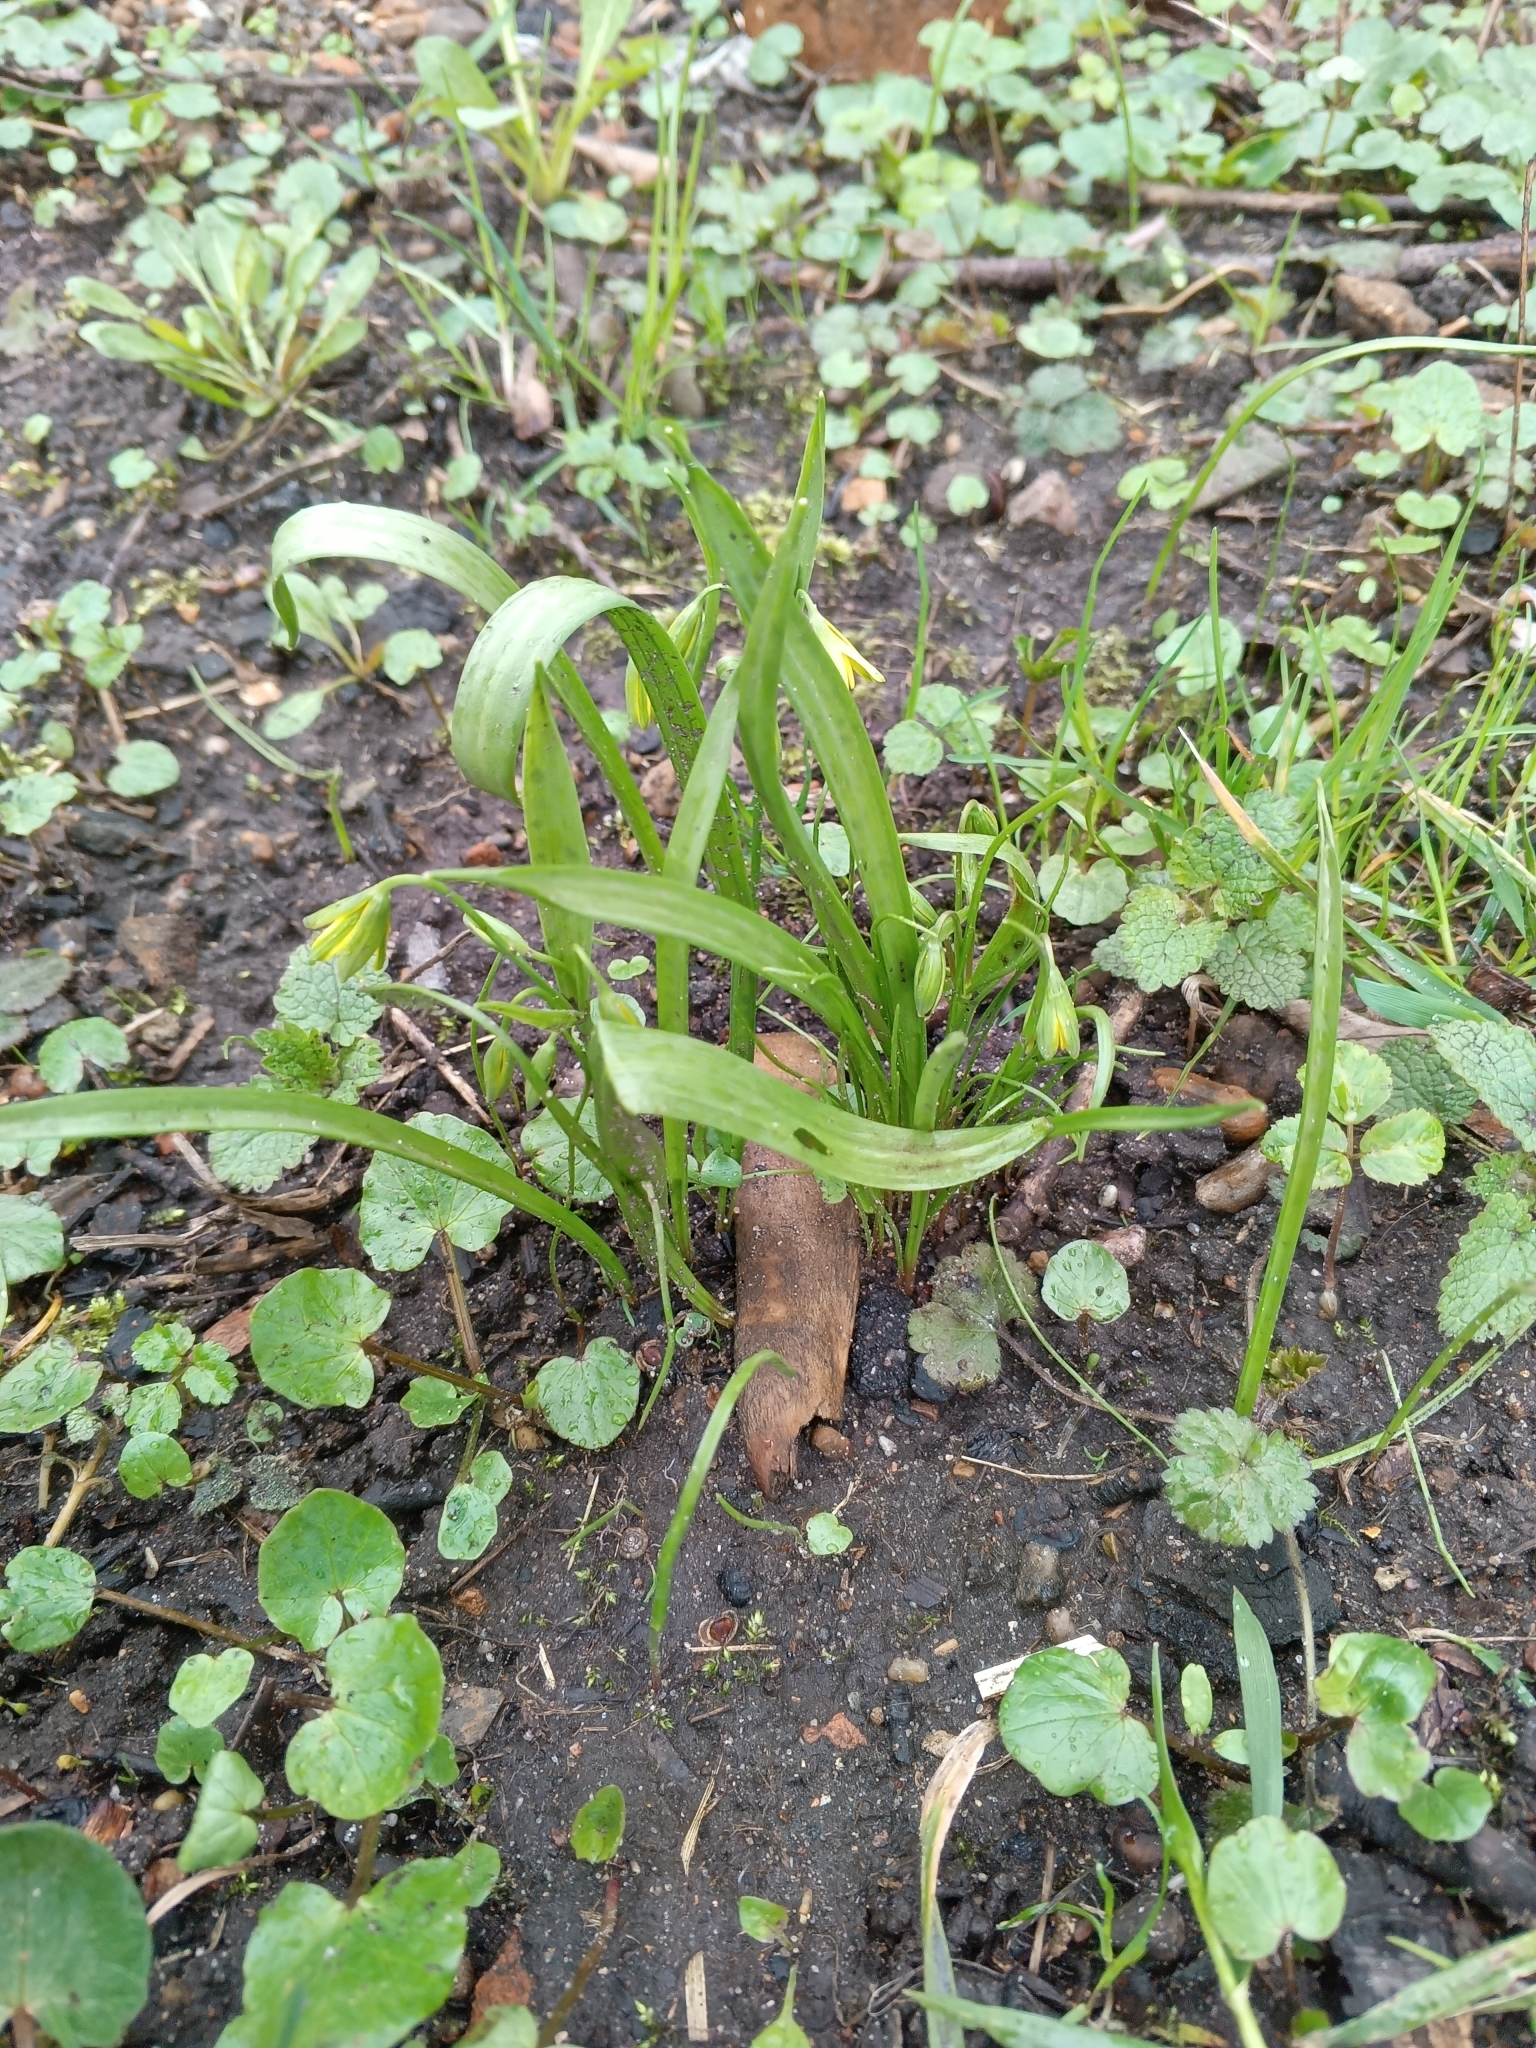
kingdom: Plantae
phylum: Tracheophyta
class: Liliopsida
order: Liliales
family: Liliaceae
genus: Gagea
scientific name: Gagea lutea
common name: Yellow star-of-bethlehem
